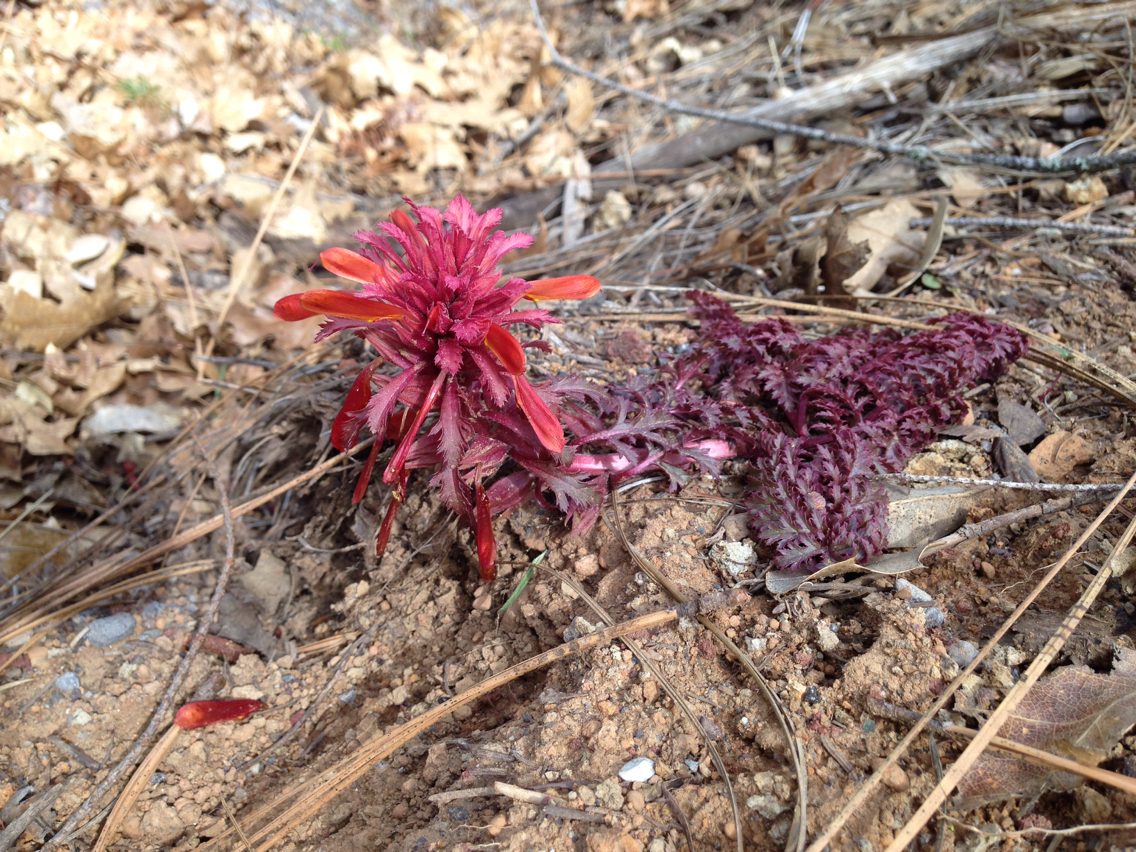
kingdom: Plantae
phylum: Tracheophyta
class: Magnoliopsida
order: Lamiales
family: Orobanchaceae
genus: Pedicularis
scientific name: Pedicularis densiflora
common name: Indian warrior
